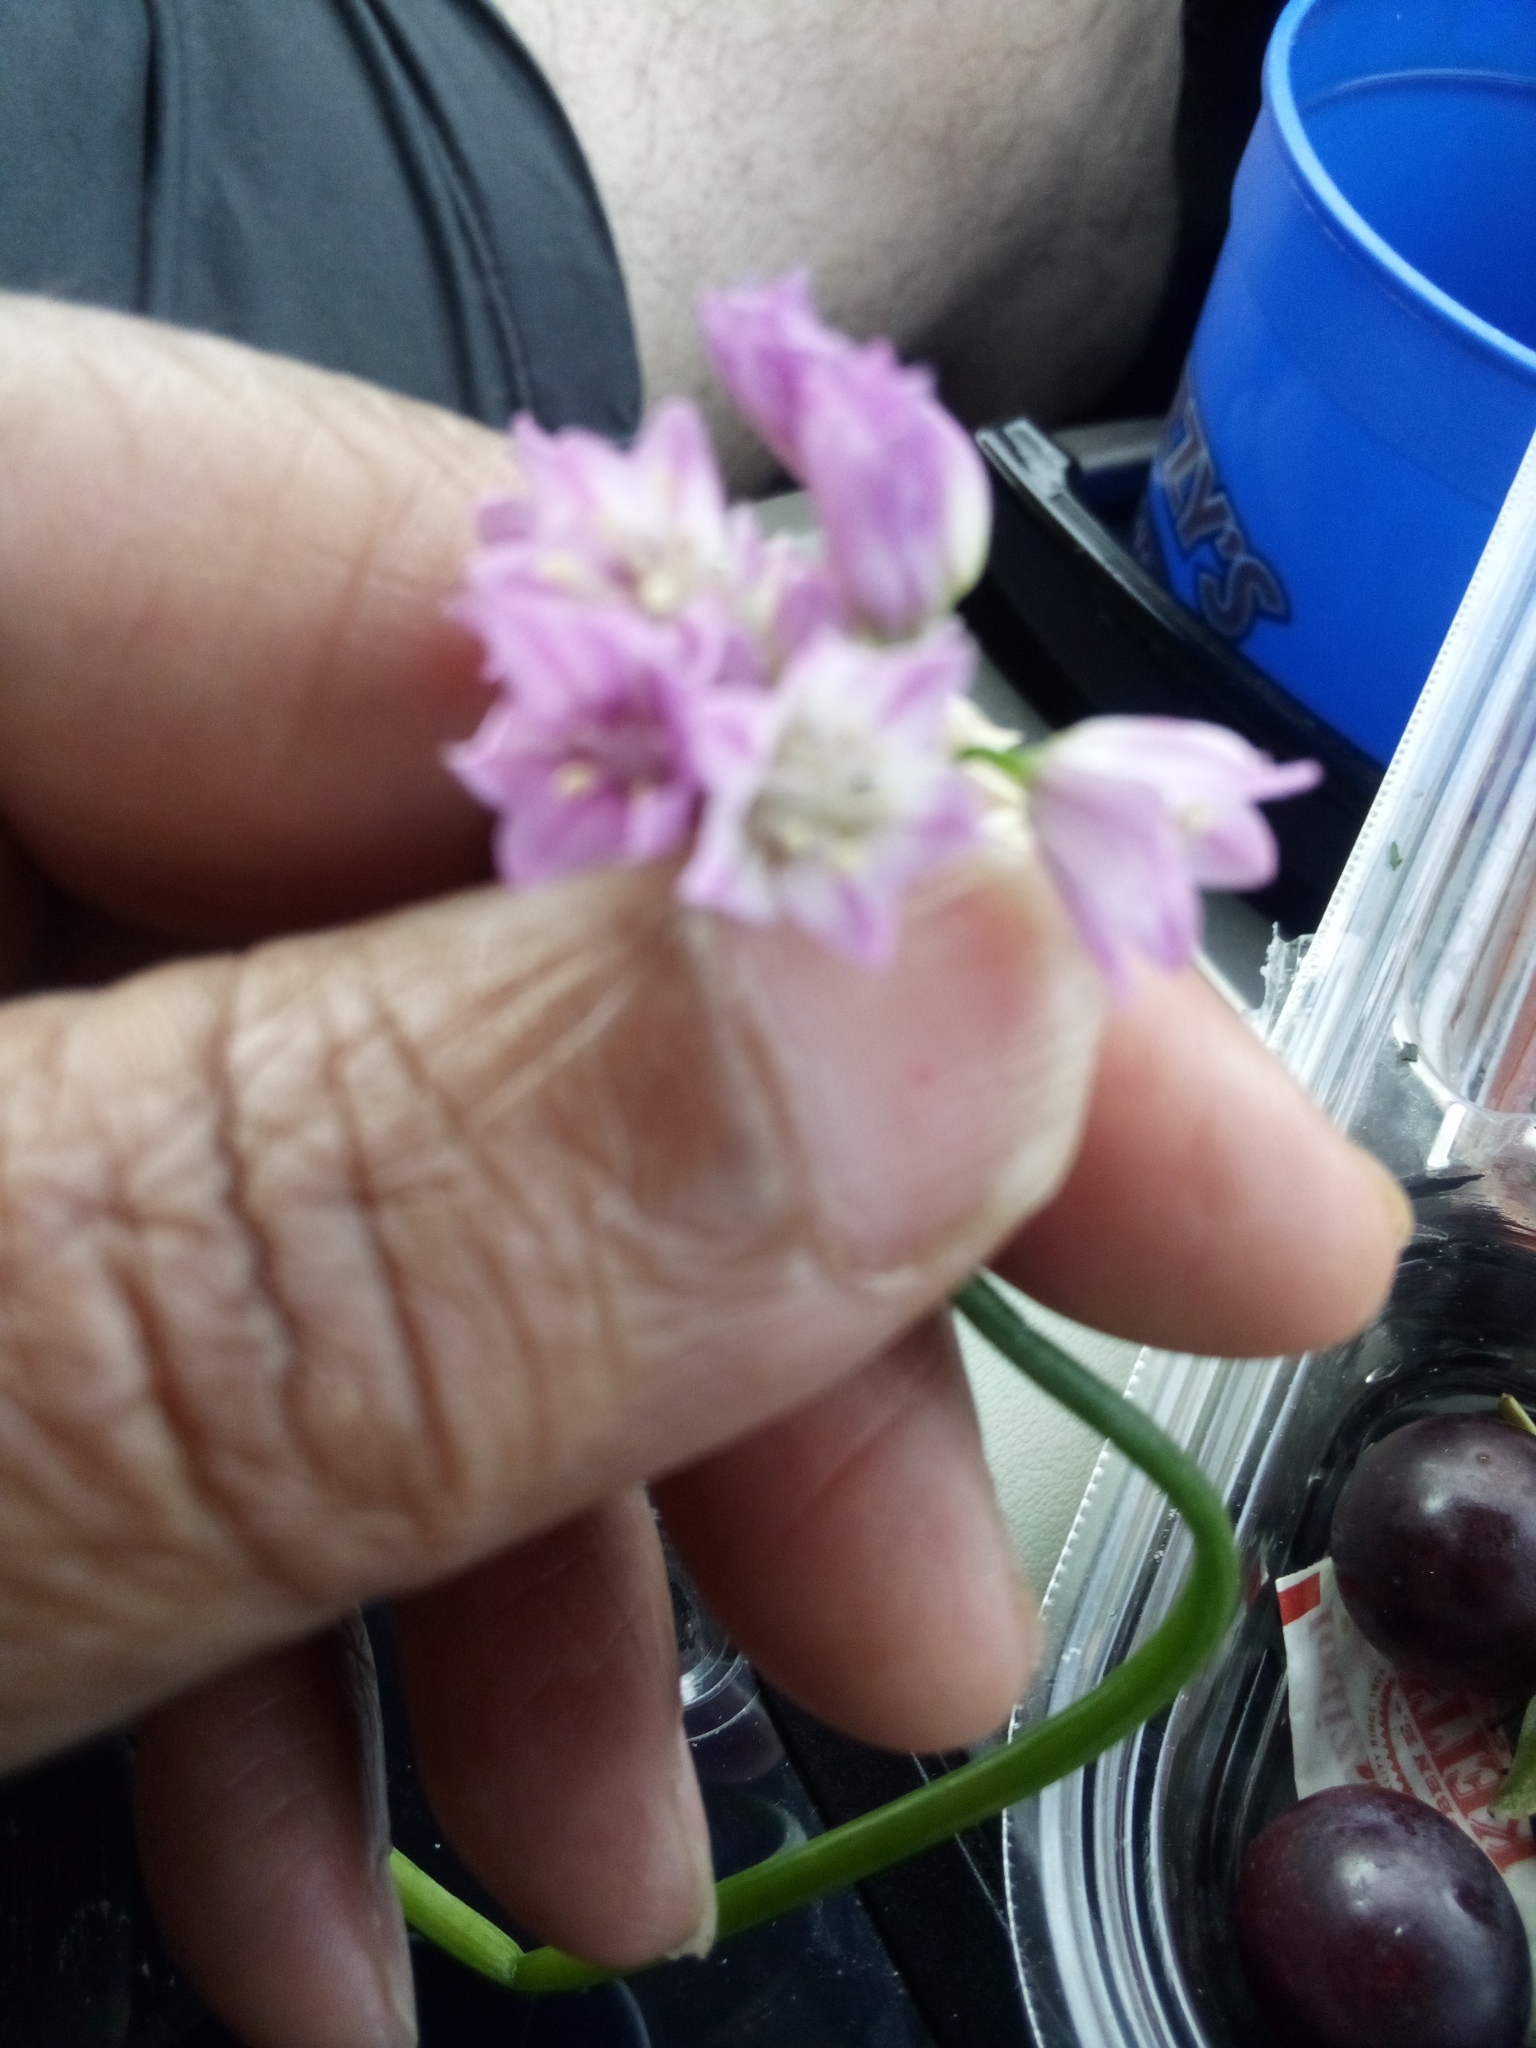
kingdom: Plantae
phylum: Tracheophyta
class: Liliopsida
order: Asparagales
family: Amaryllidaceae
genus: Allium
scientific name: Allium drummondii
